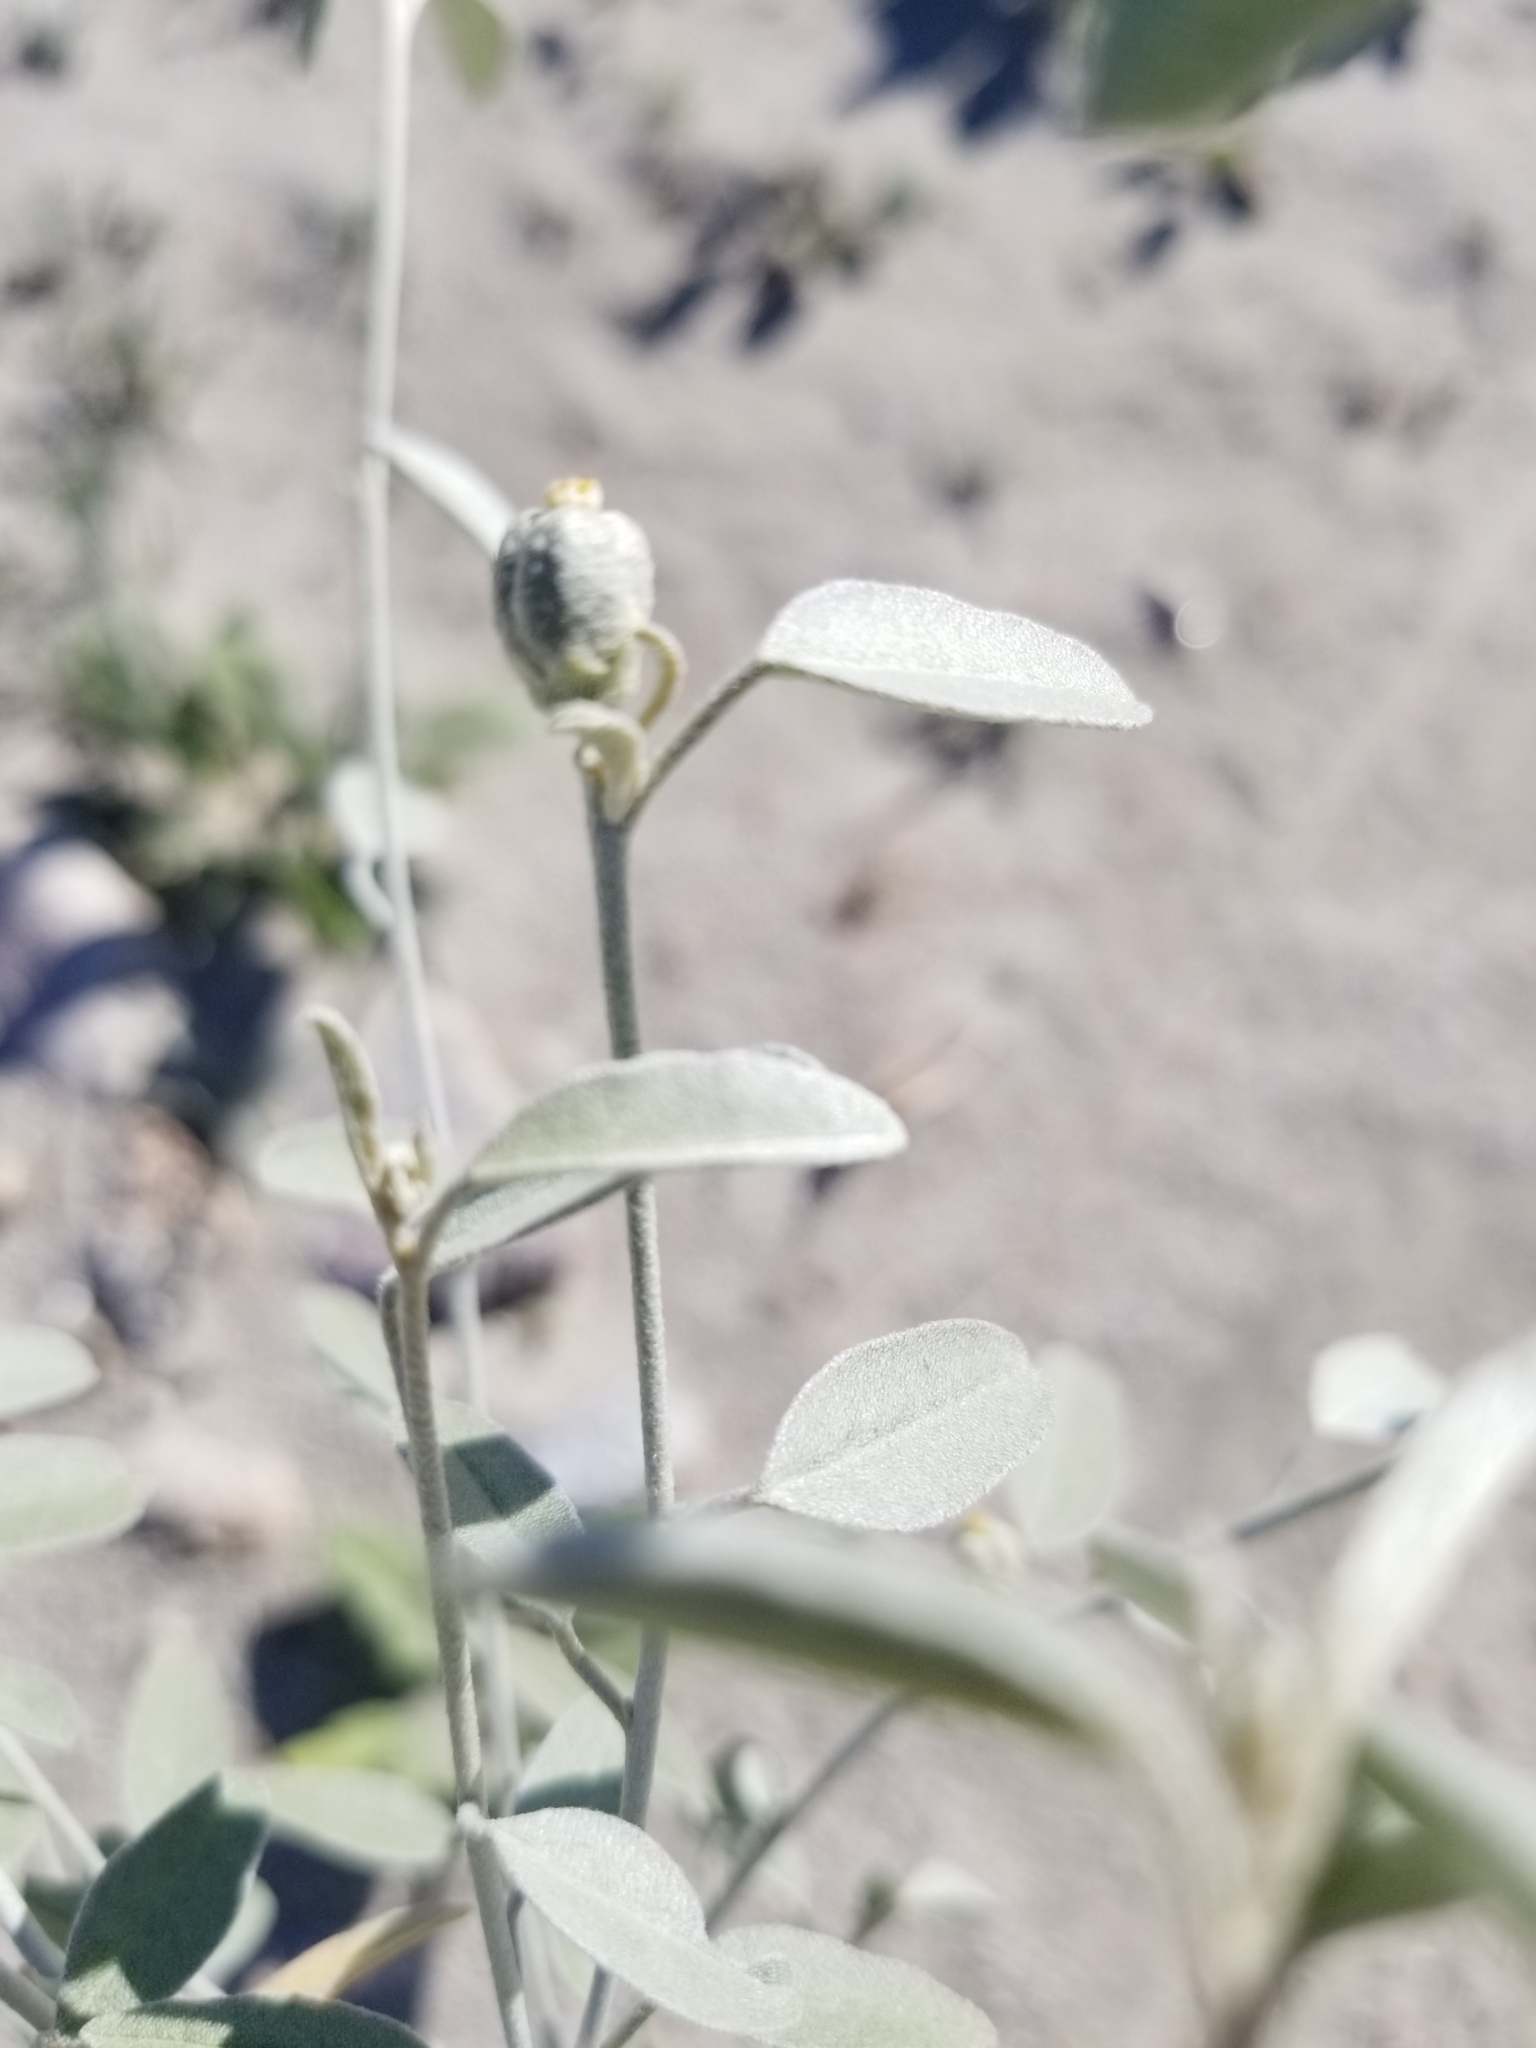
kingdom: Plantae
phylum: Tracheophyta
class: Magnoliopsida
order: Malpighiales
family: Euphorbiaceae
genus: Croton
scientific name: Croton californicus
